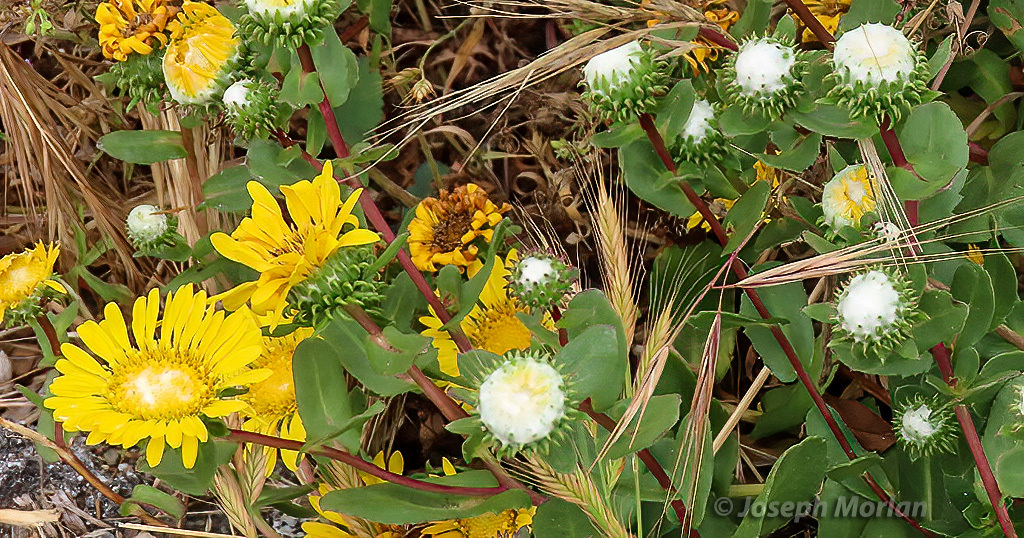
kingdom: Plantae
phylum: Tracheophyta
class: Magnoliopsida
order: Asterales
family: Asteraceae
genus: Grindelia
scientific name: Grindelia hirsutula
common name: Hairy gumweed
